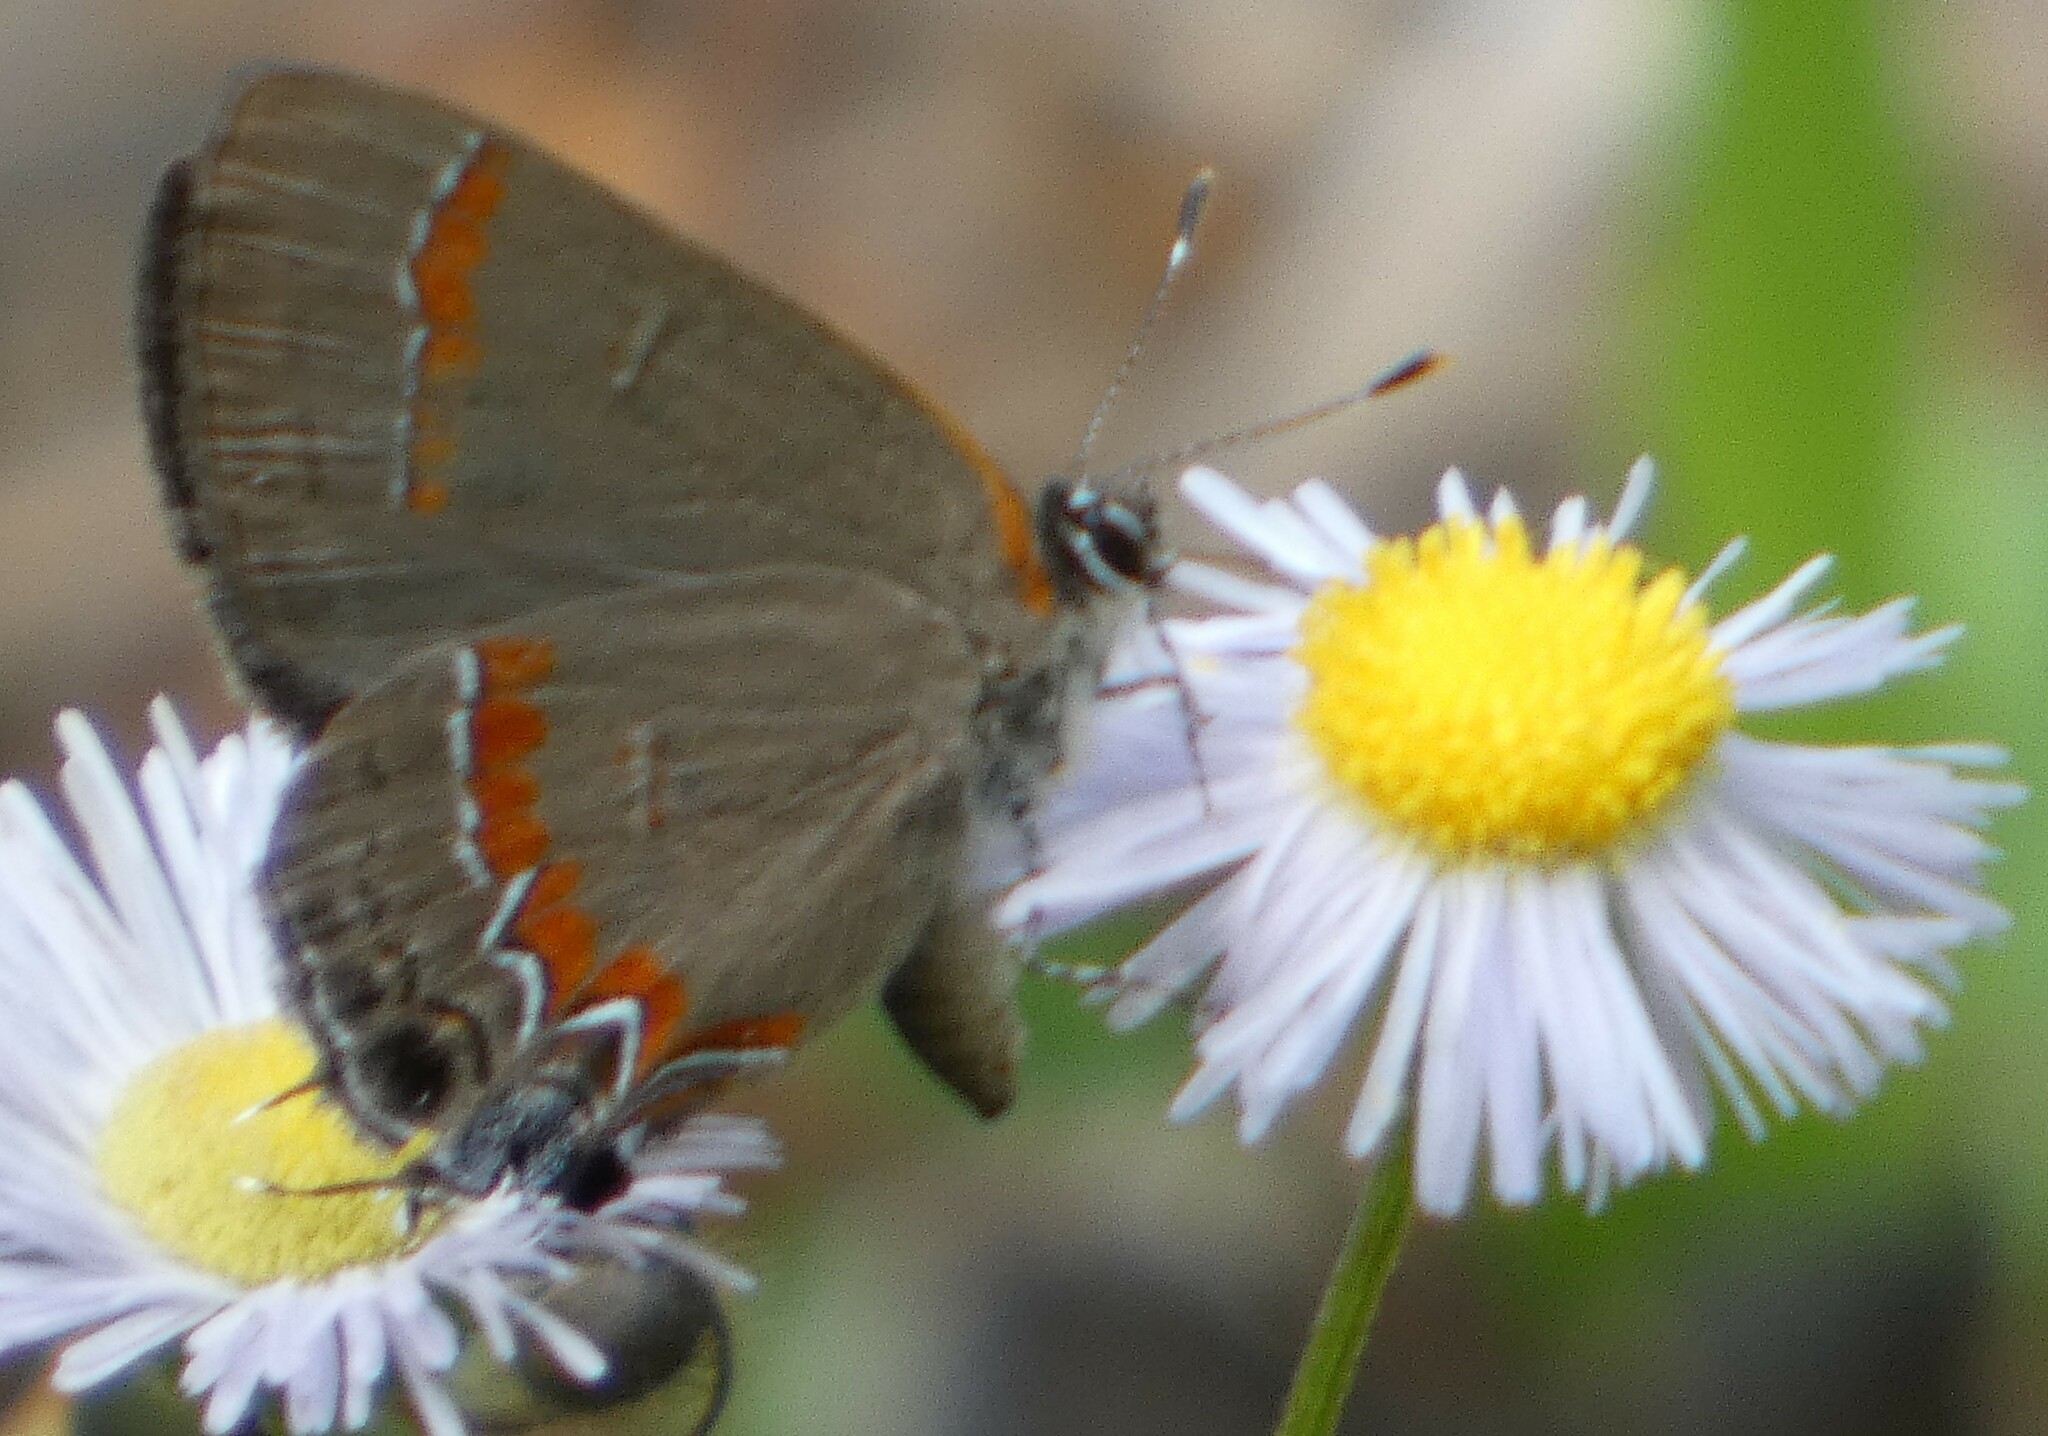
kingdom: Animalia
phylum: Arthropoda
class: Insecta
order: Lepidoptera
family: Lycaenidae
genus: Calycopis
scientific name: Calycopis cecrops
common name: Red-banded hairstreak
